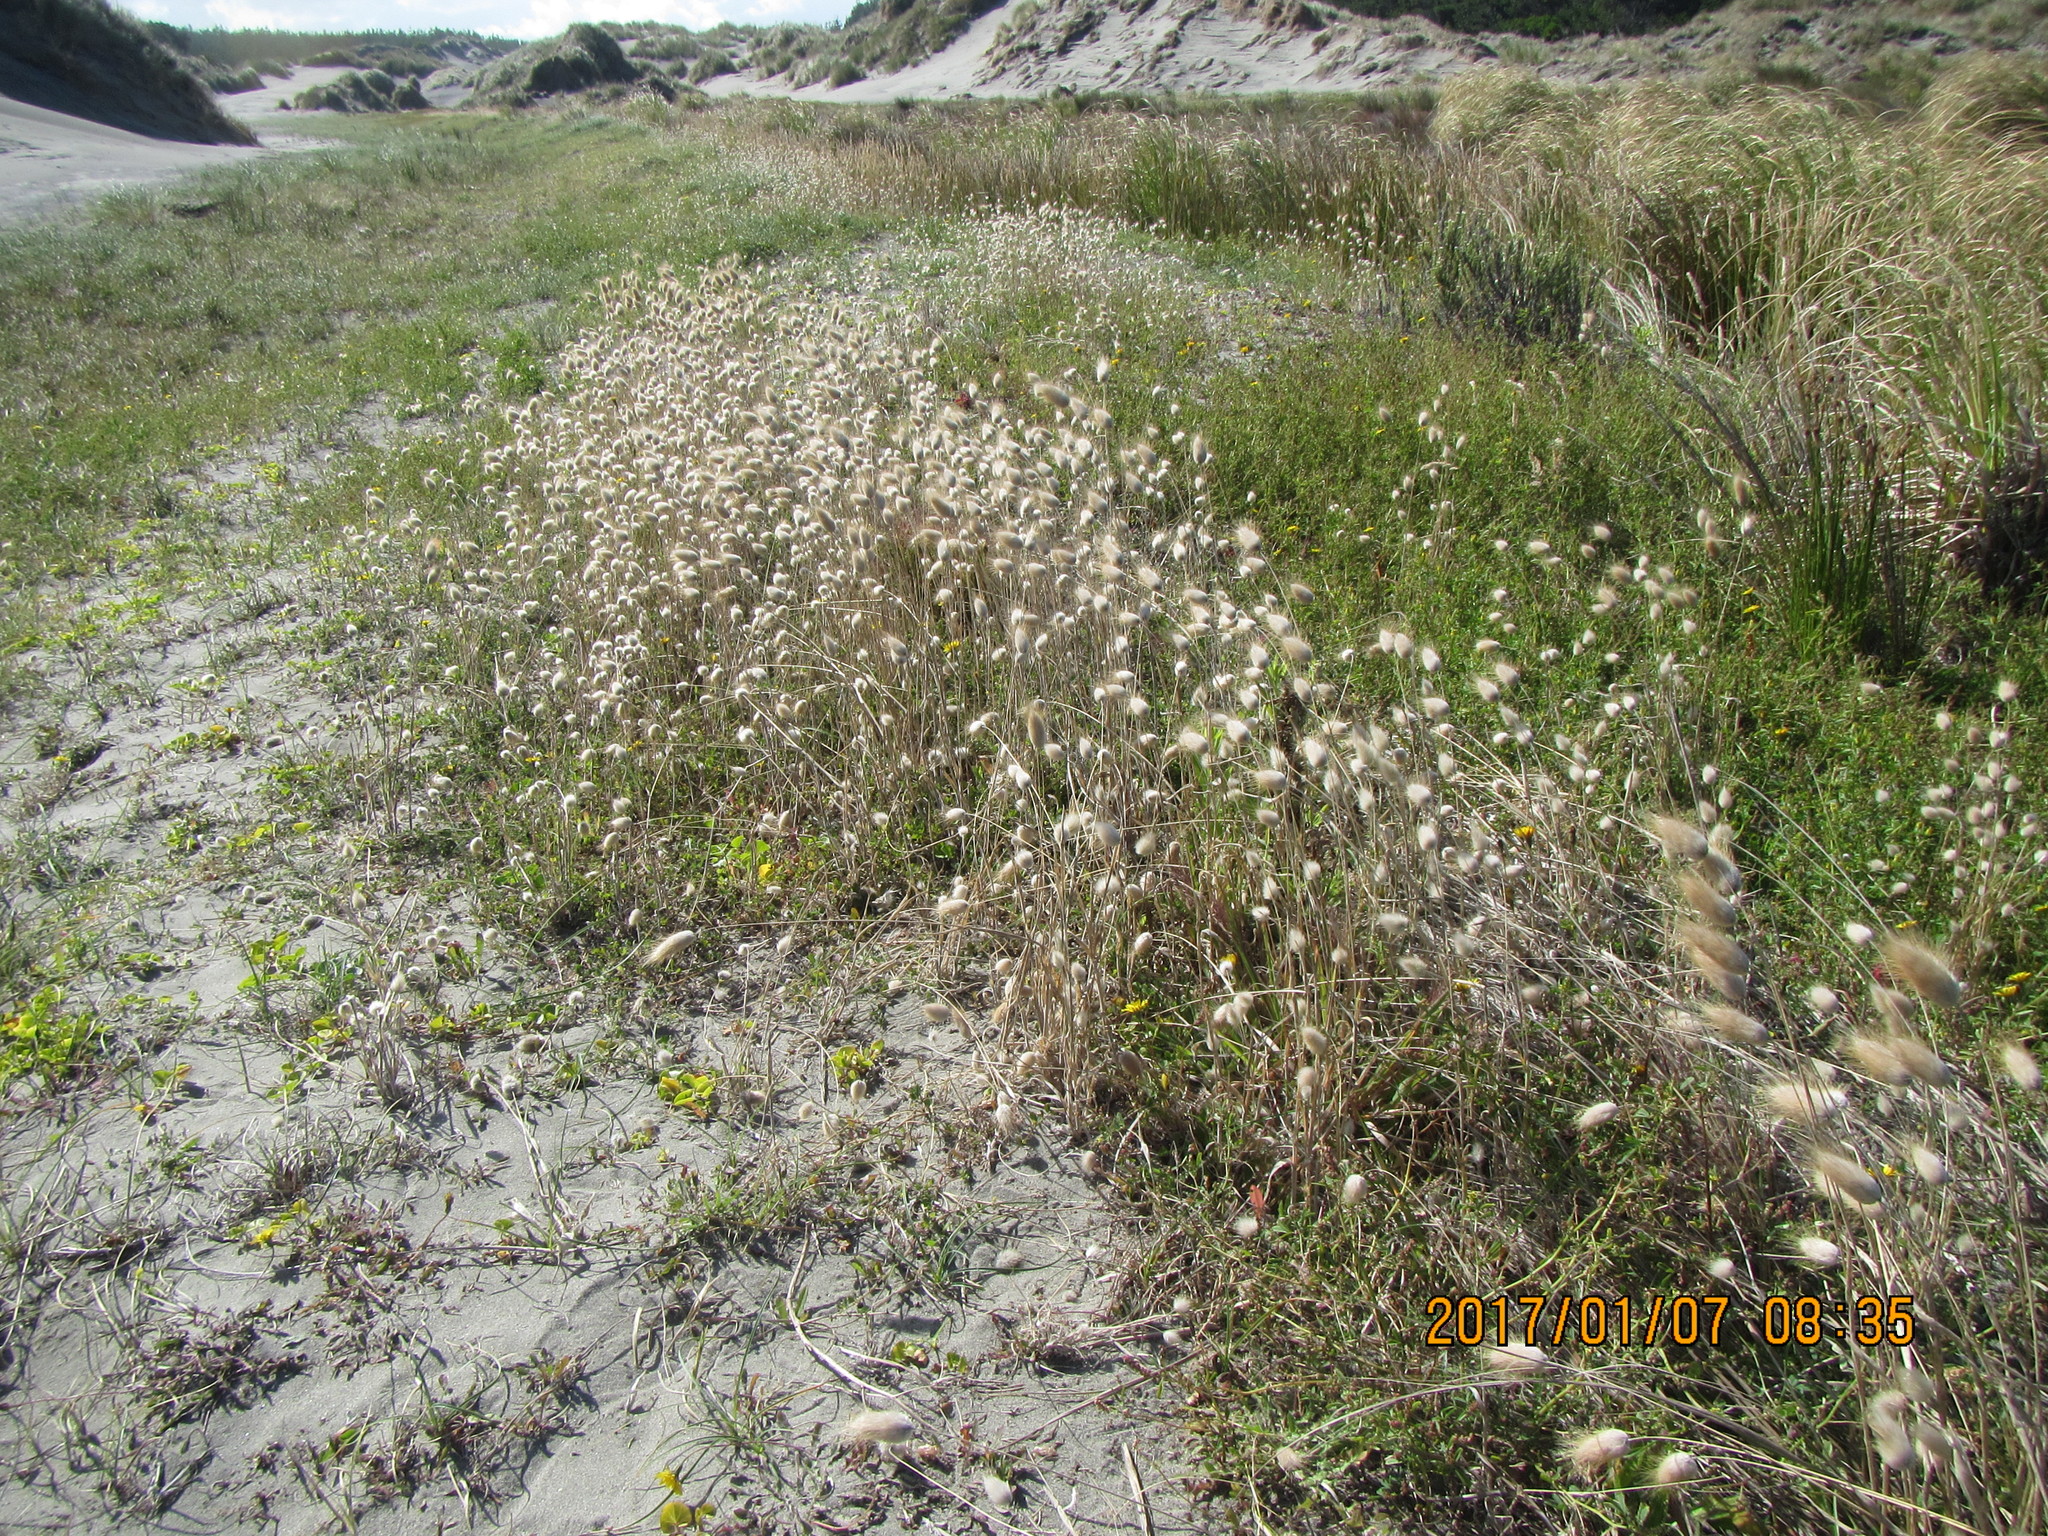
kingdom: Plantae
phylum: Tracheophyta
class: Liliopsida
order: Poales
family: Poaceae
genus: Lagurus
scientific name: Lagurus ovatus
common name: Hare's-tail
